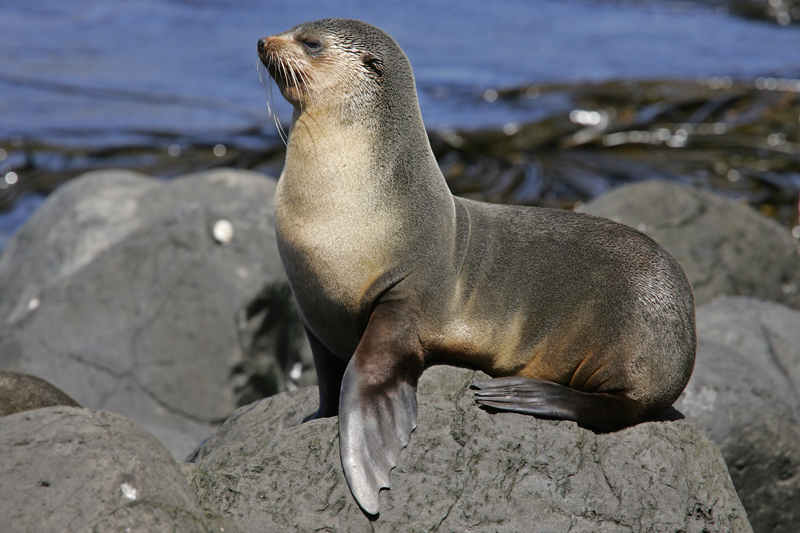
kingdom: Animalia
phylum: Chordata
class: Mammalia
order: Carnivora
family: Otariidae
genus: Arctocephalus
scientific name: Arctocephalus tropicalis
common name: Subantarctic fur seal
